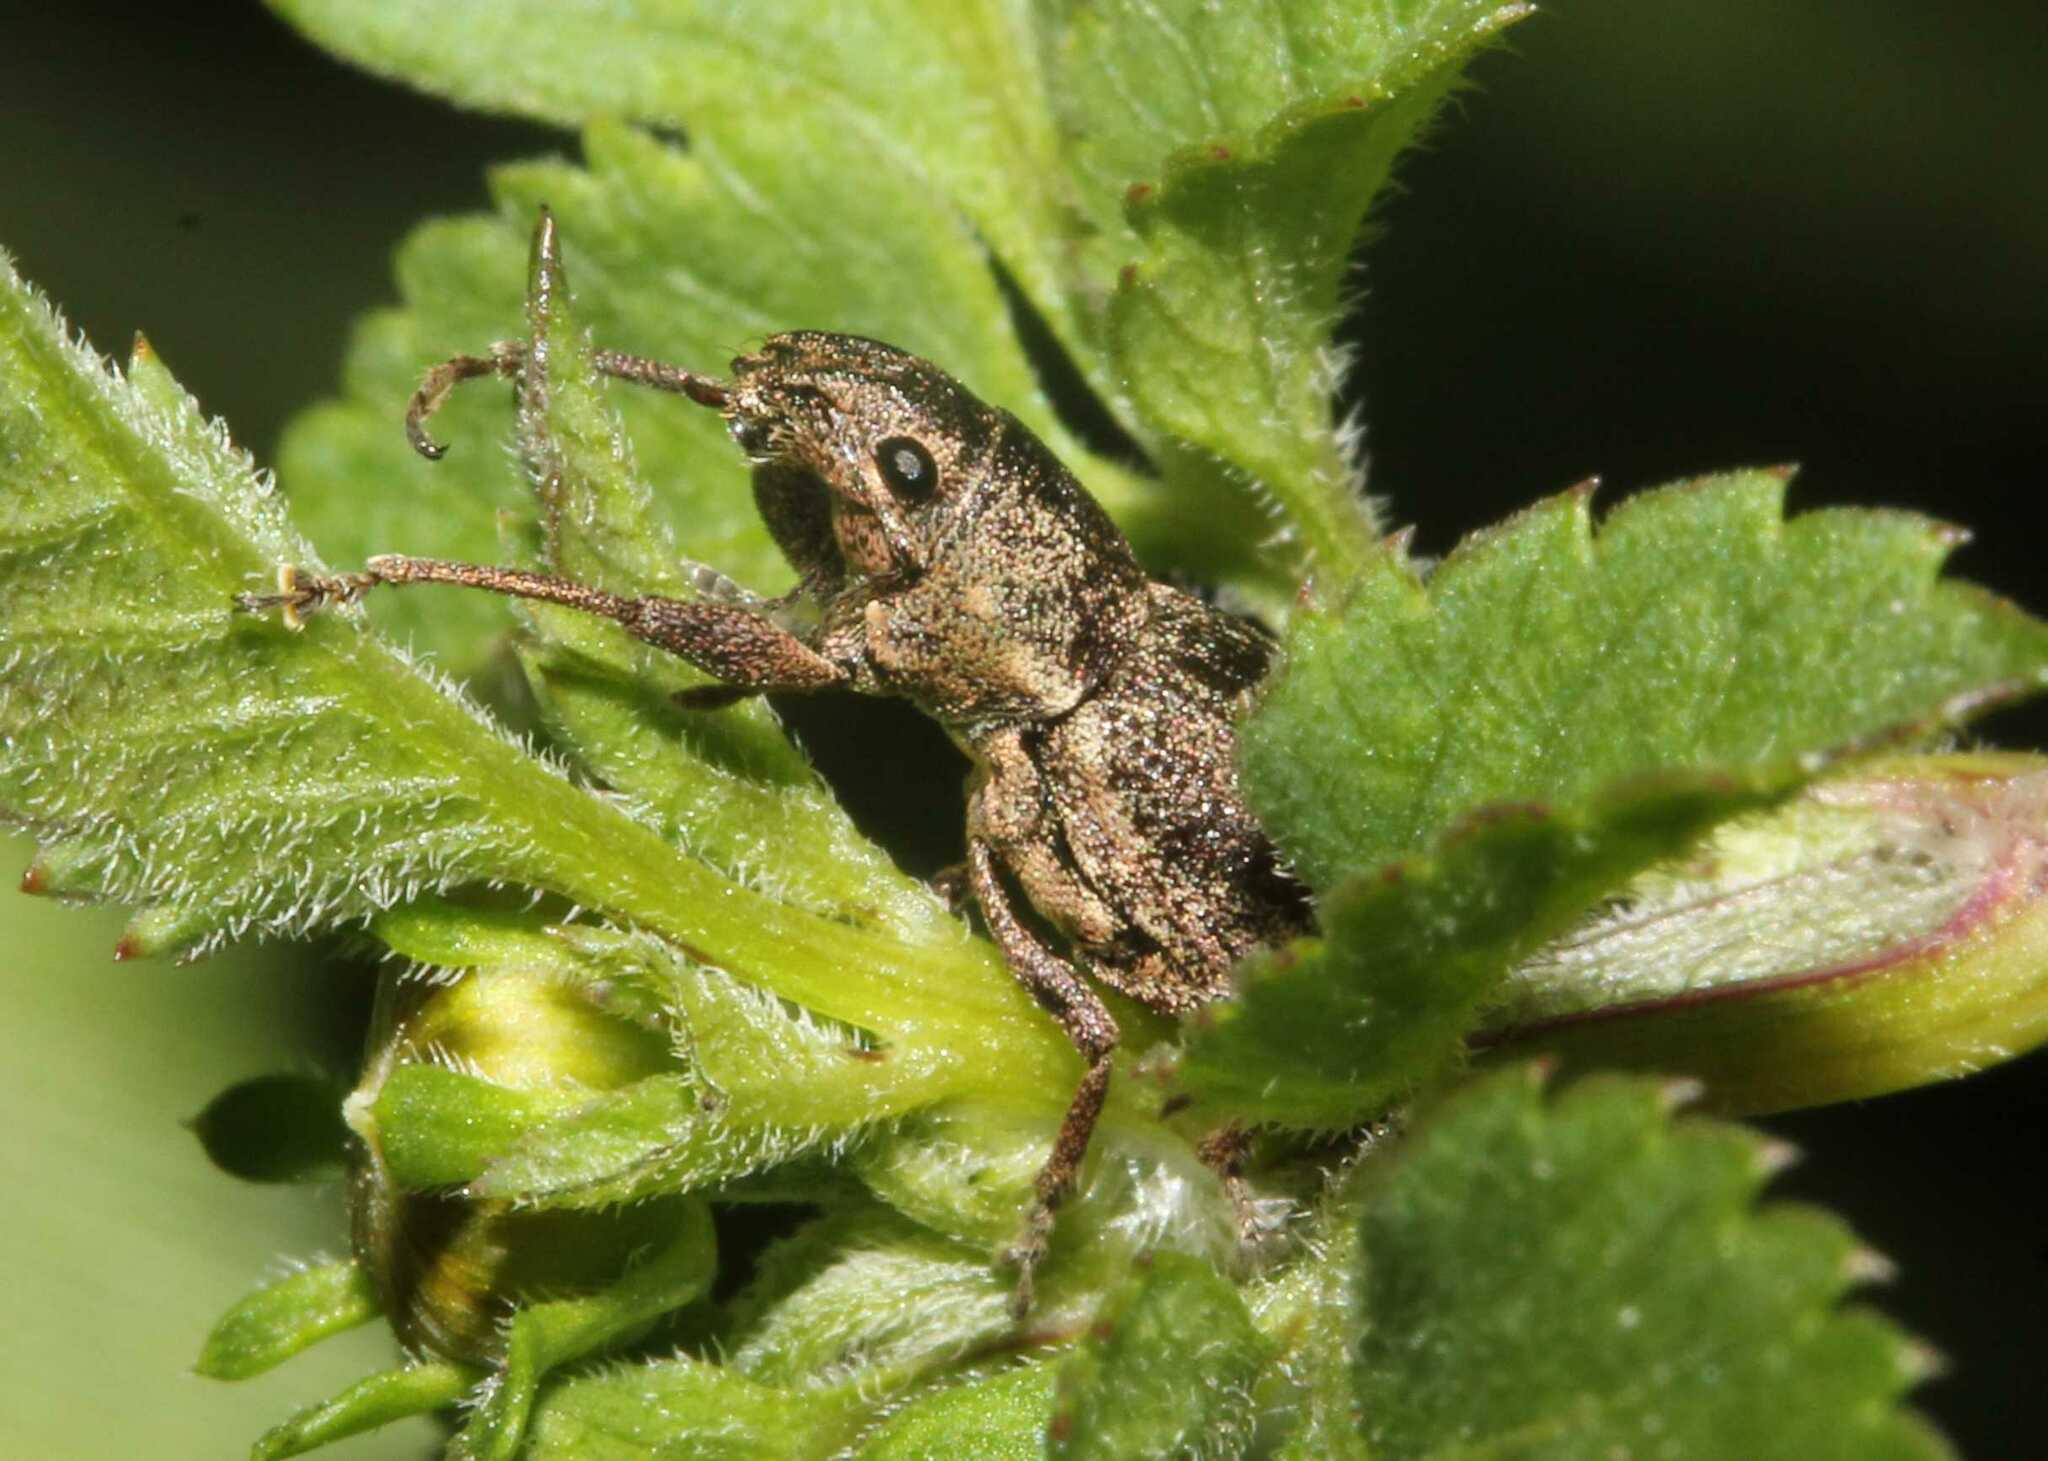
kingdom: Animalia
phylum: Arthropoda
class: Insecta
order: Coleoptera
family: Curculionidae
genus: Naupactus
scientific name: Naupactus cervinus
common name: Fuller rose beetle
